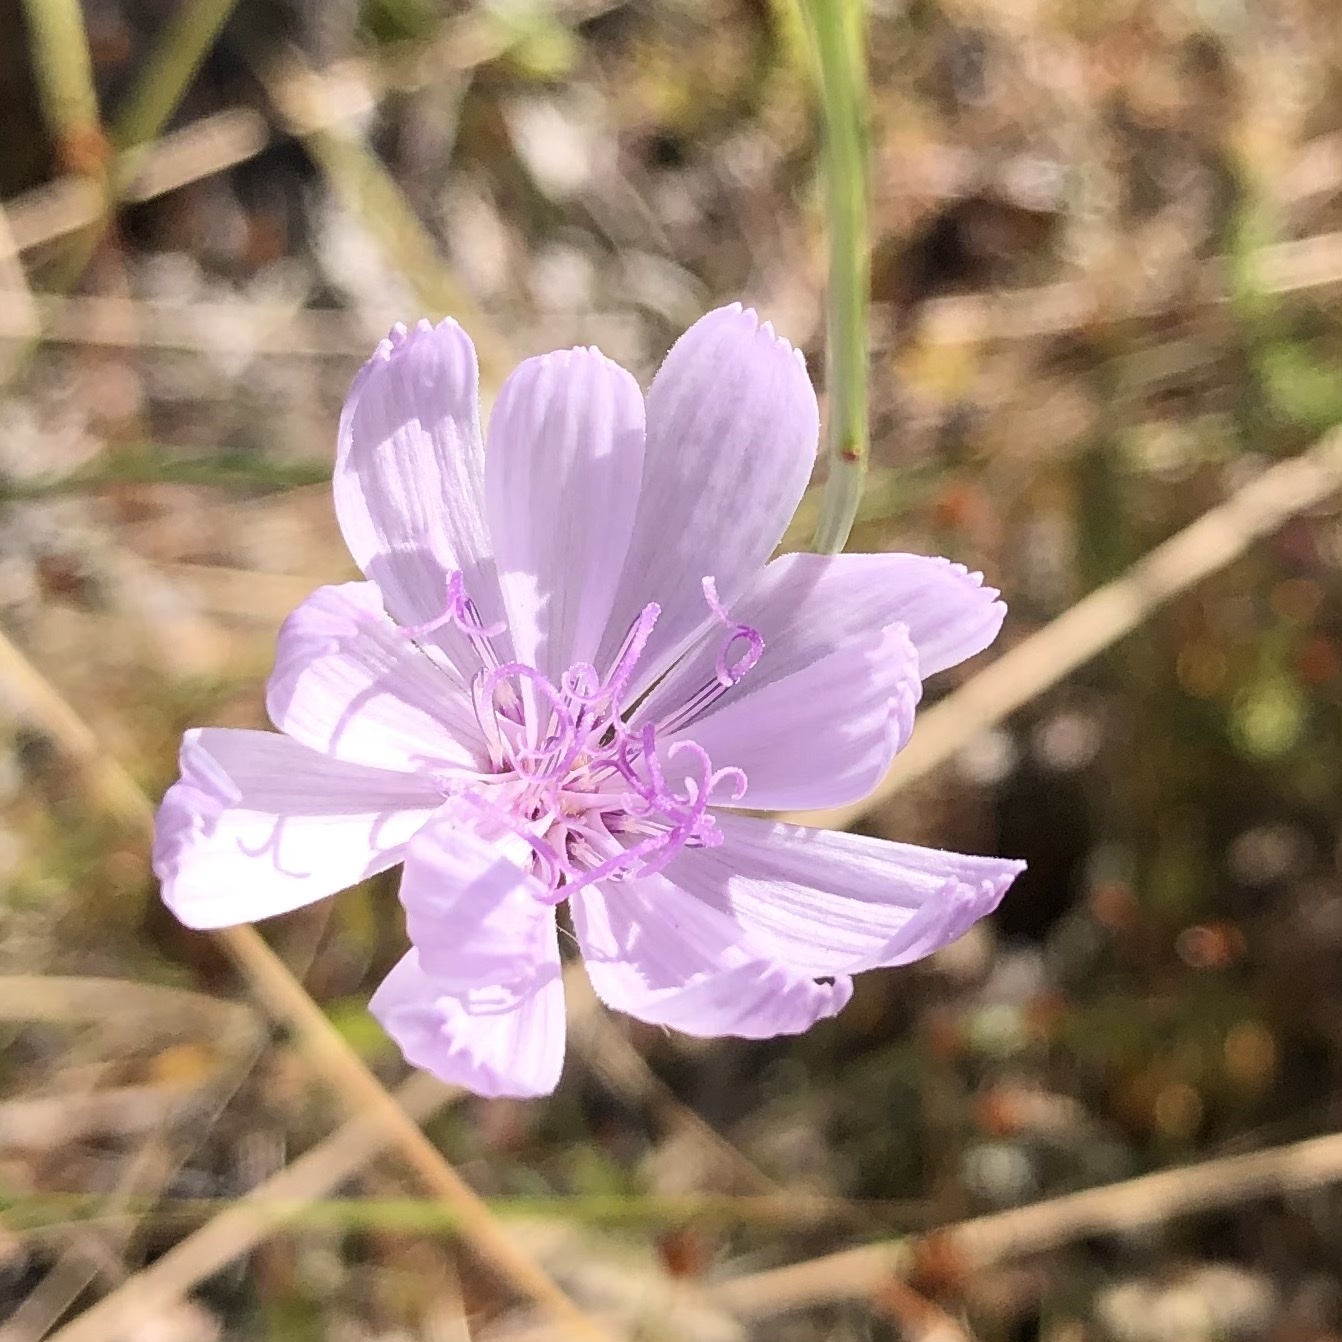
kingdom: Plantae
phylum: Tracheophyta
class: Magnoliopsida
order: Asterales
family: Asteraceae
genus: Lygodesmia
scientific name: Lygodesmia aphylla
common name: Rose-rush
